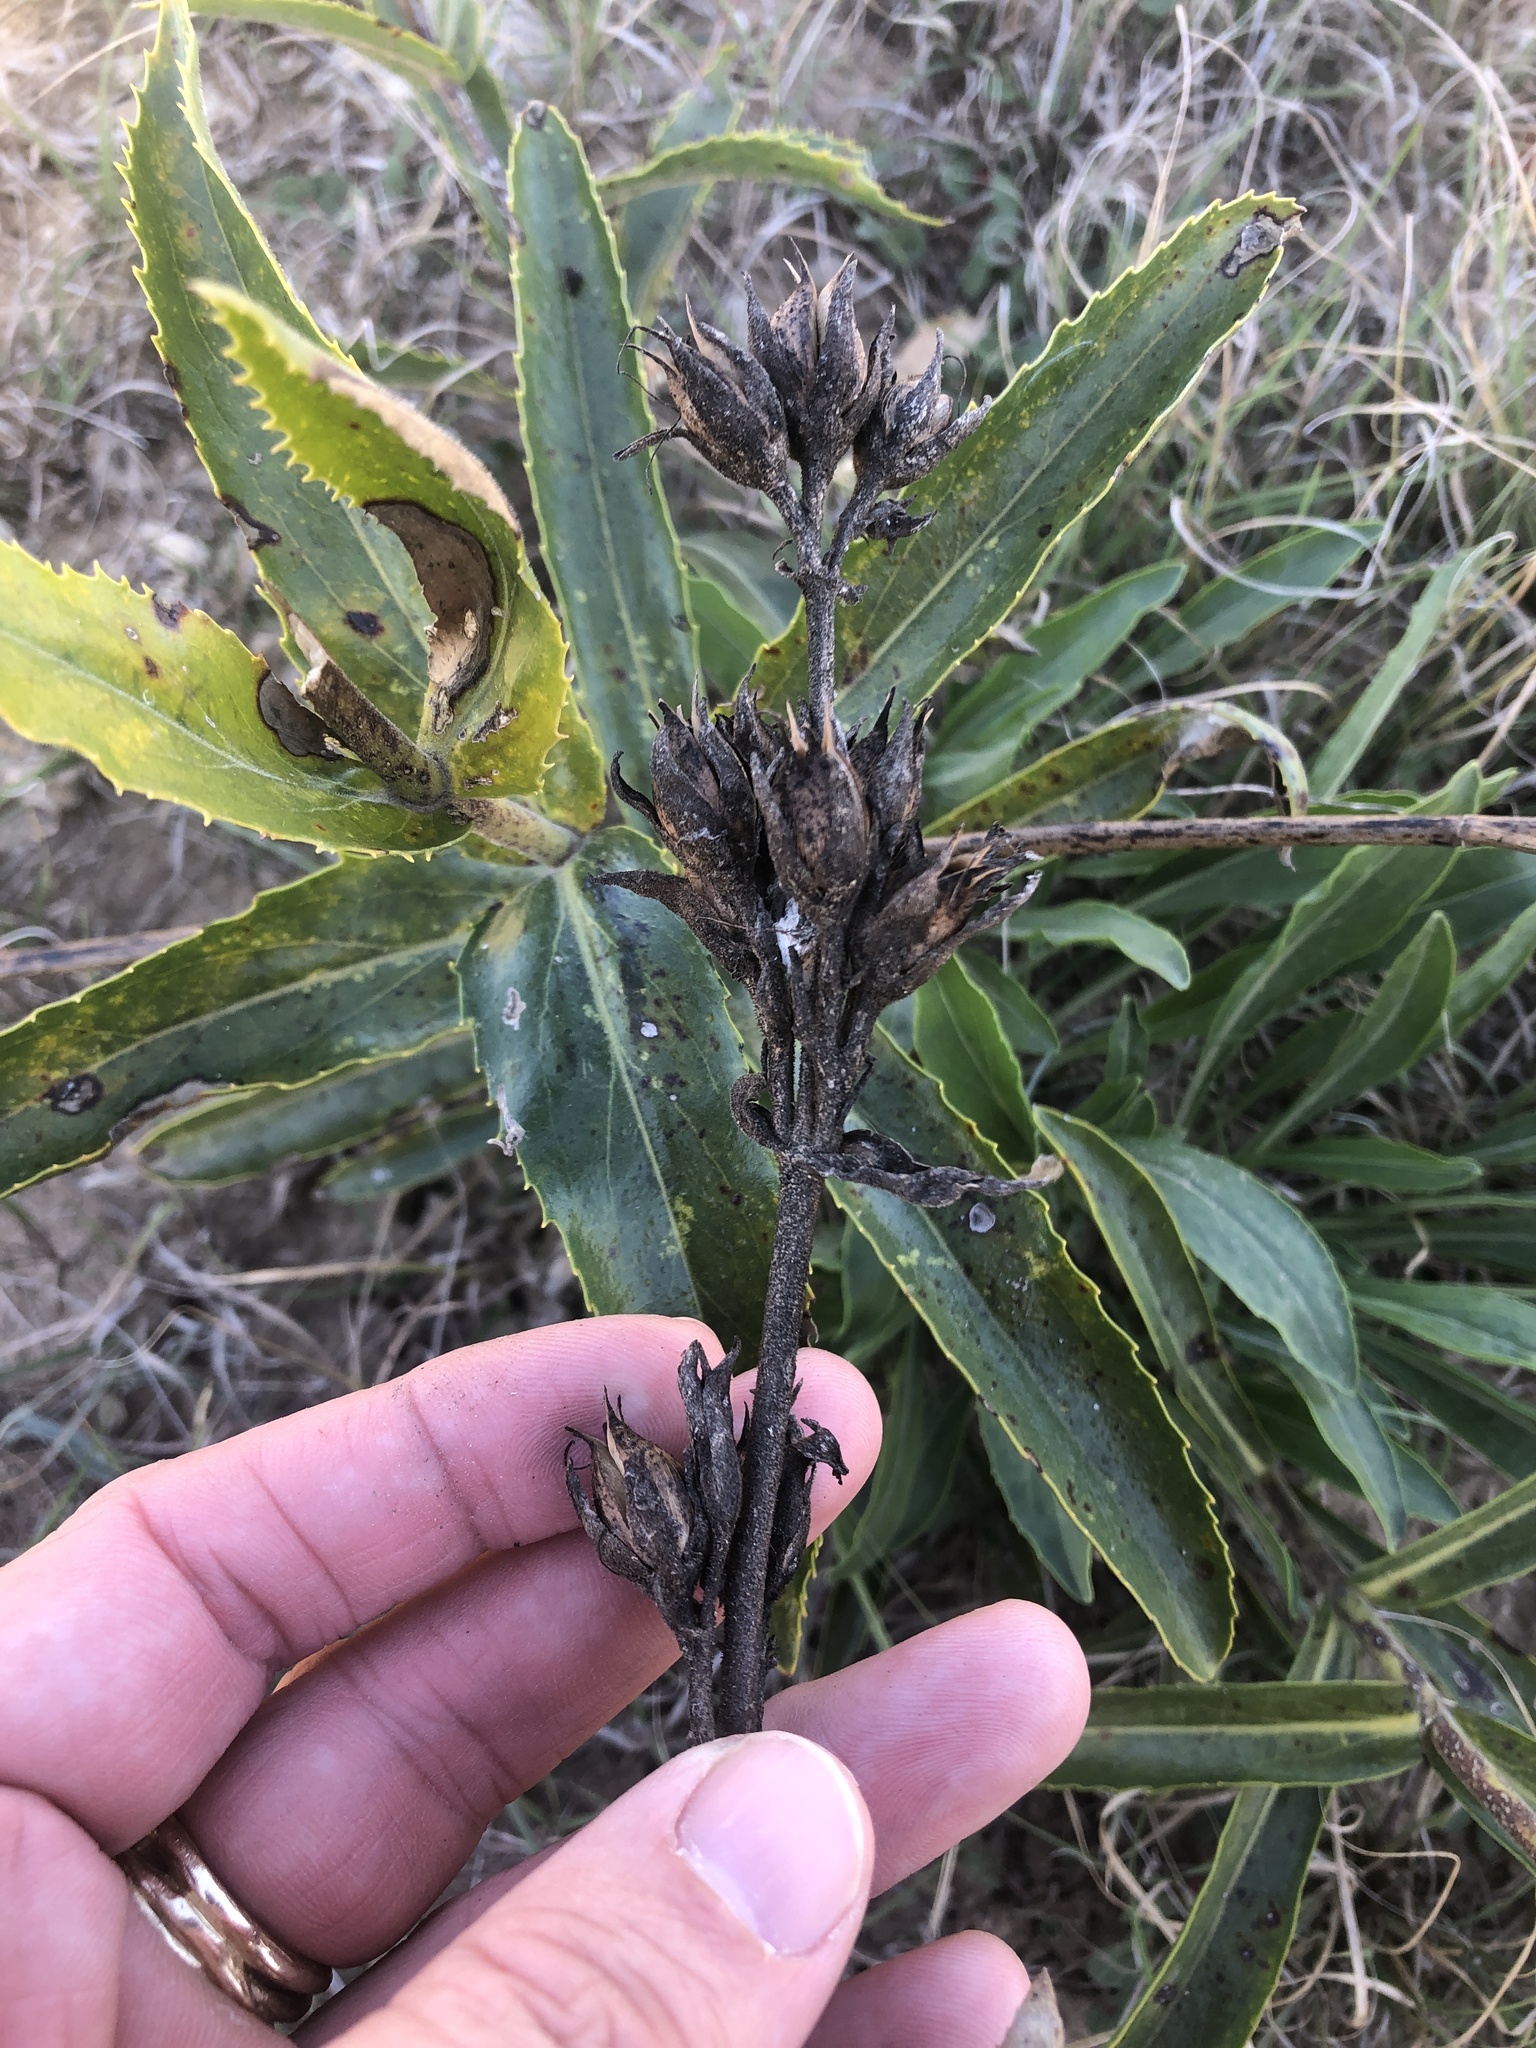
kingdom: Plantae
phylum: Tracheophyta
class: Magnoliopsida
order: Lamiales
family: Plantaginaceae
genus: Penstemon
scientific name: Penstemon cobaea
